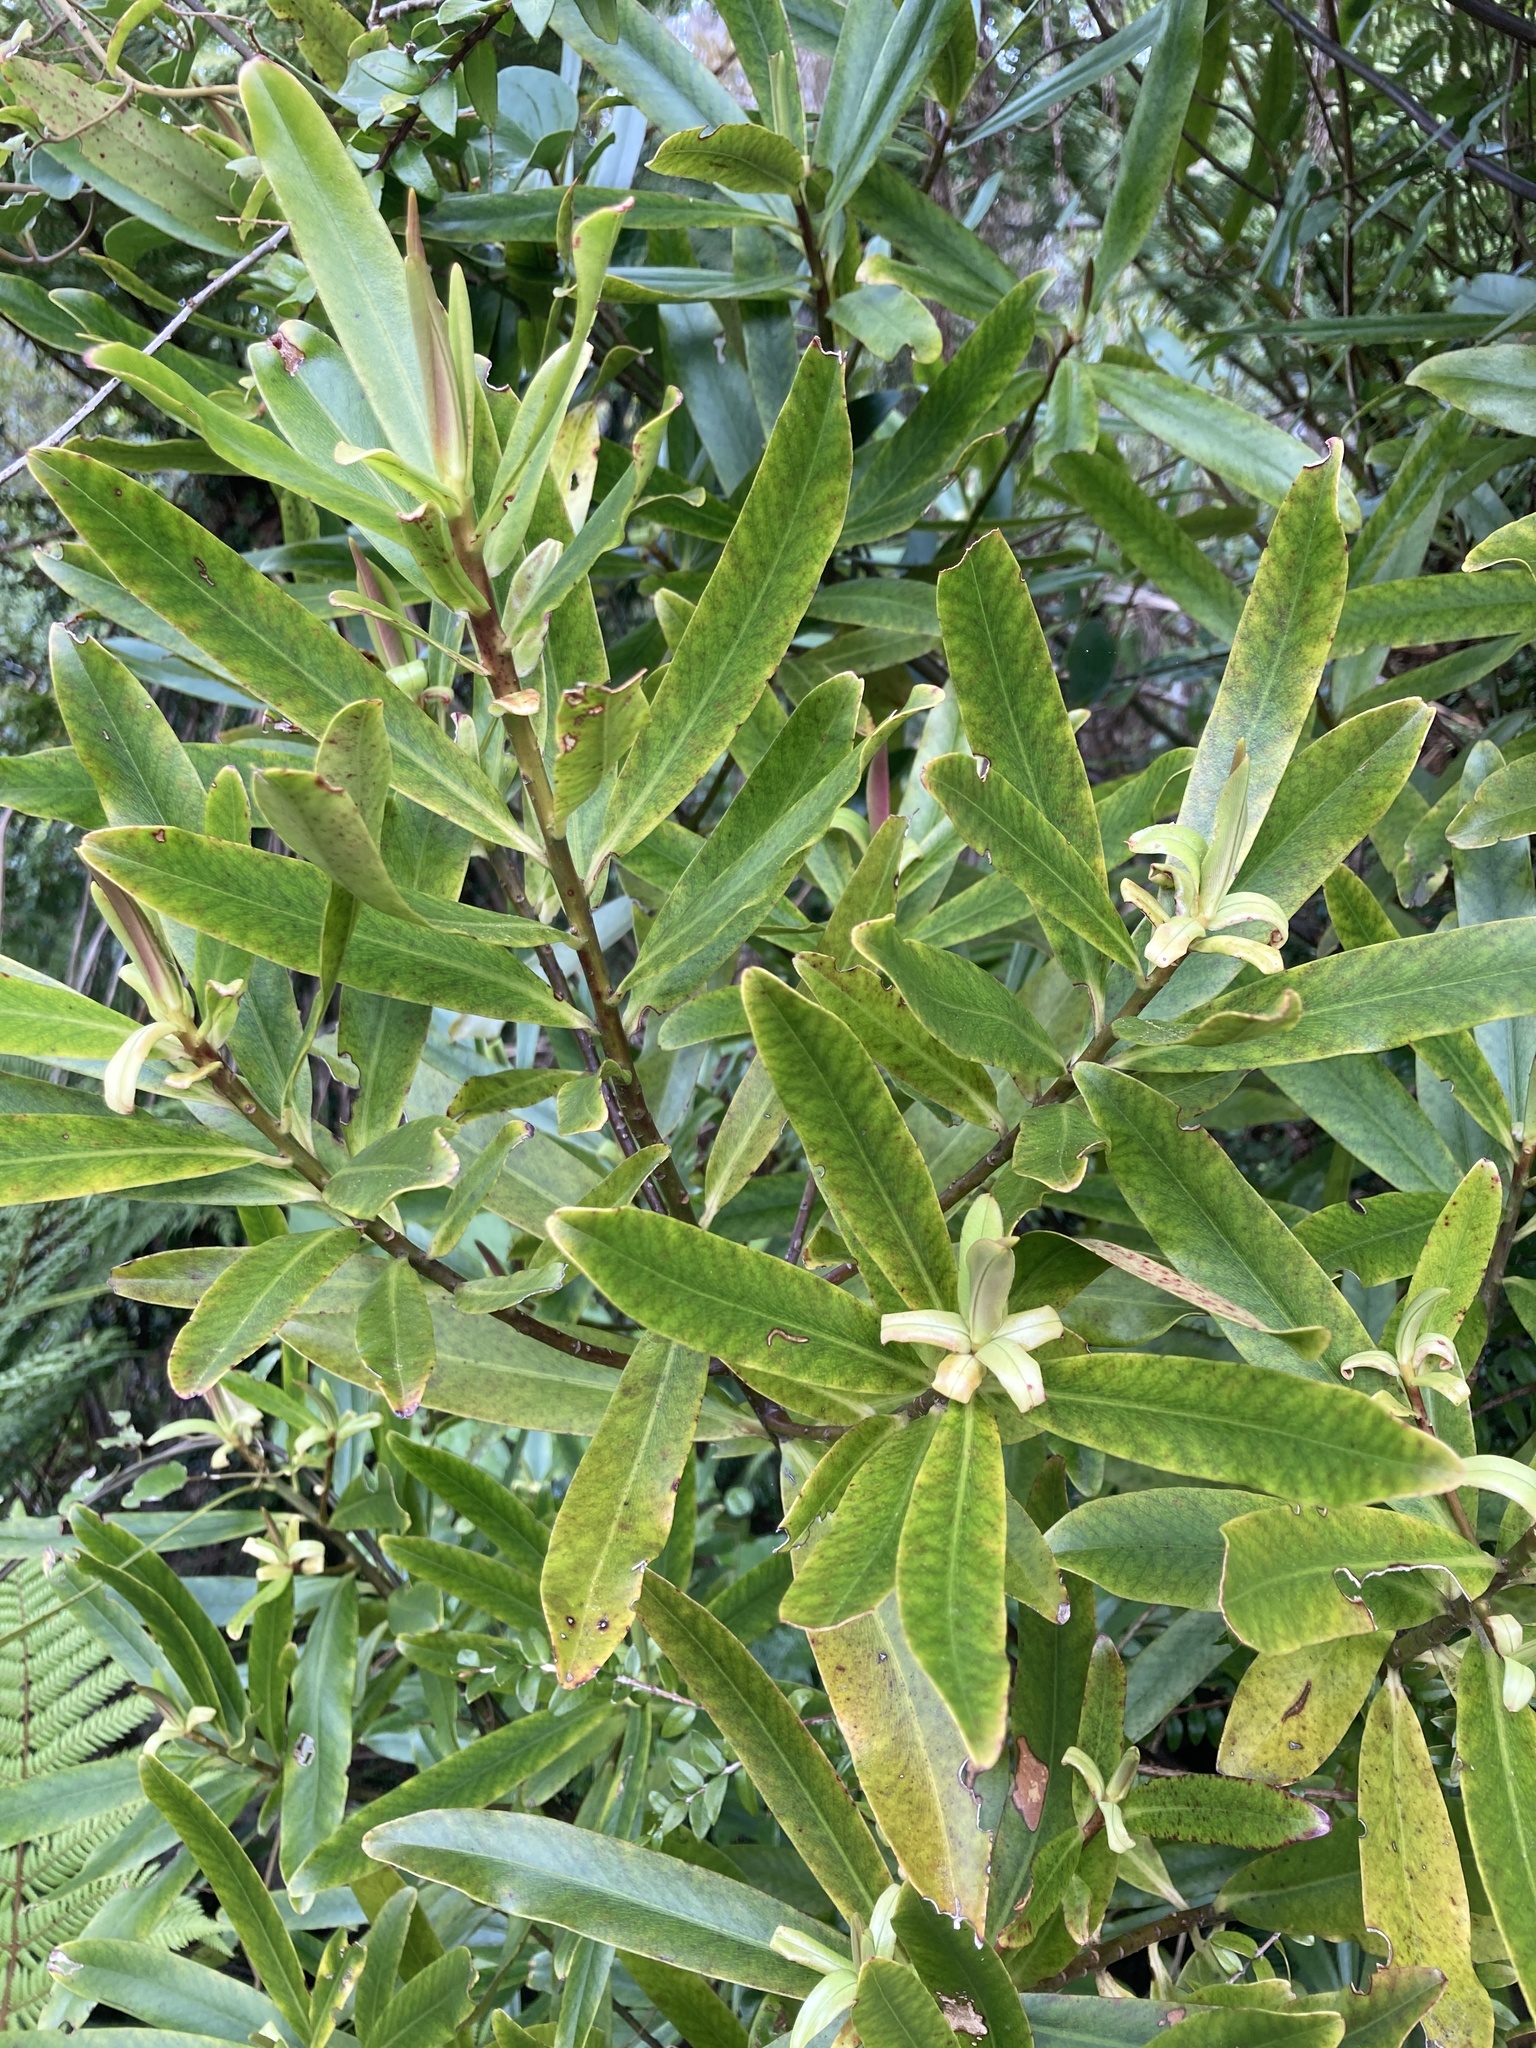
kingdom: Plantae
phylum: Tracheophyta
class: Magnoliopsida
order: Ericales
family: Primulaceae
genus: Myrsine
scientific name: Myrsine salicina
